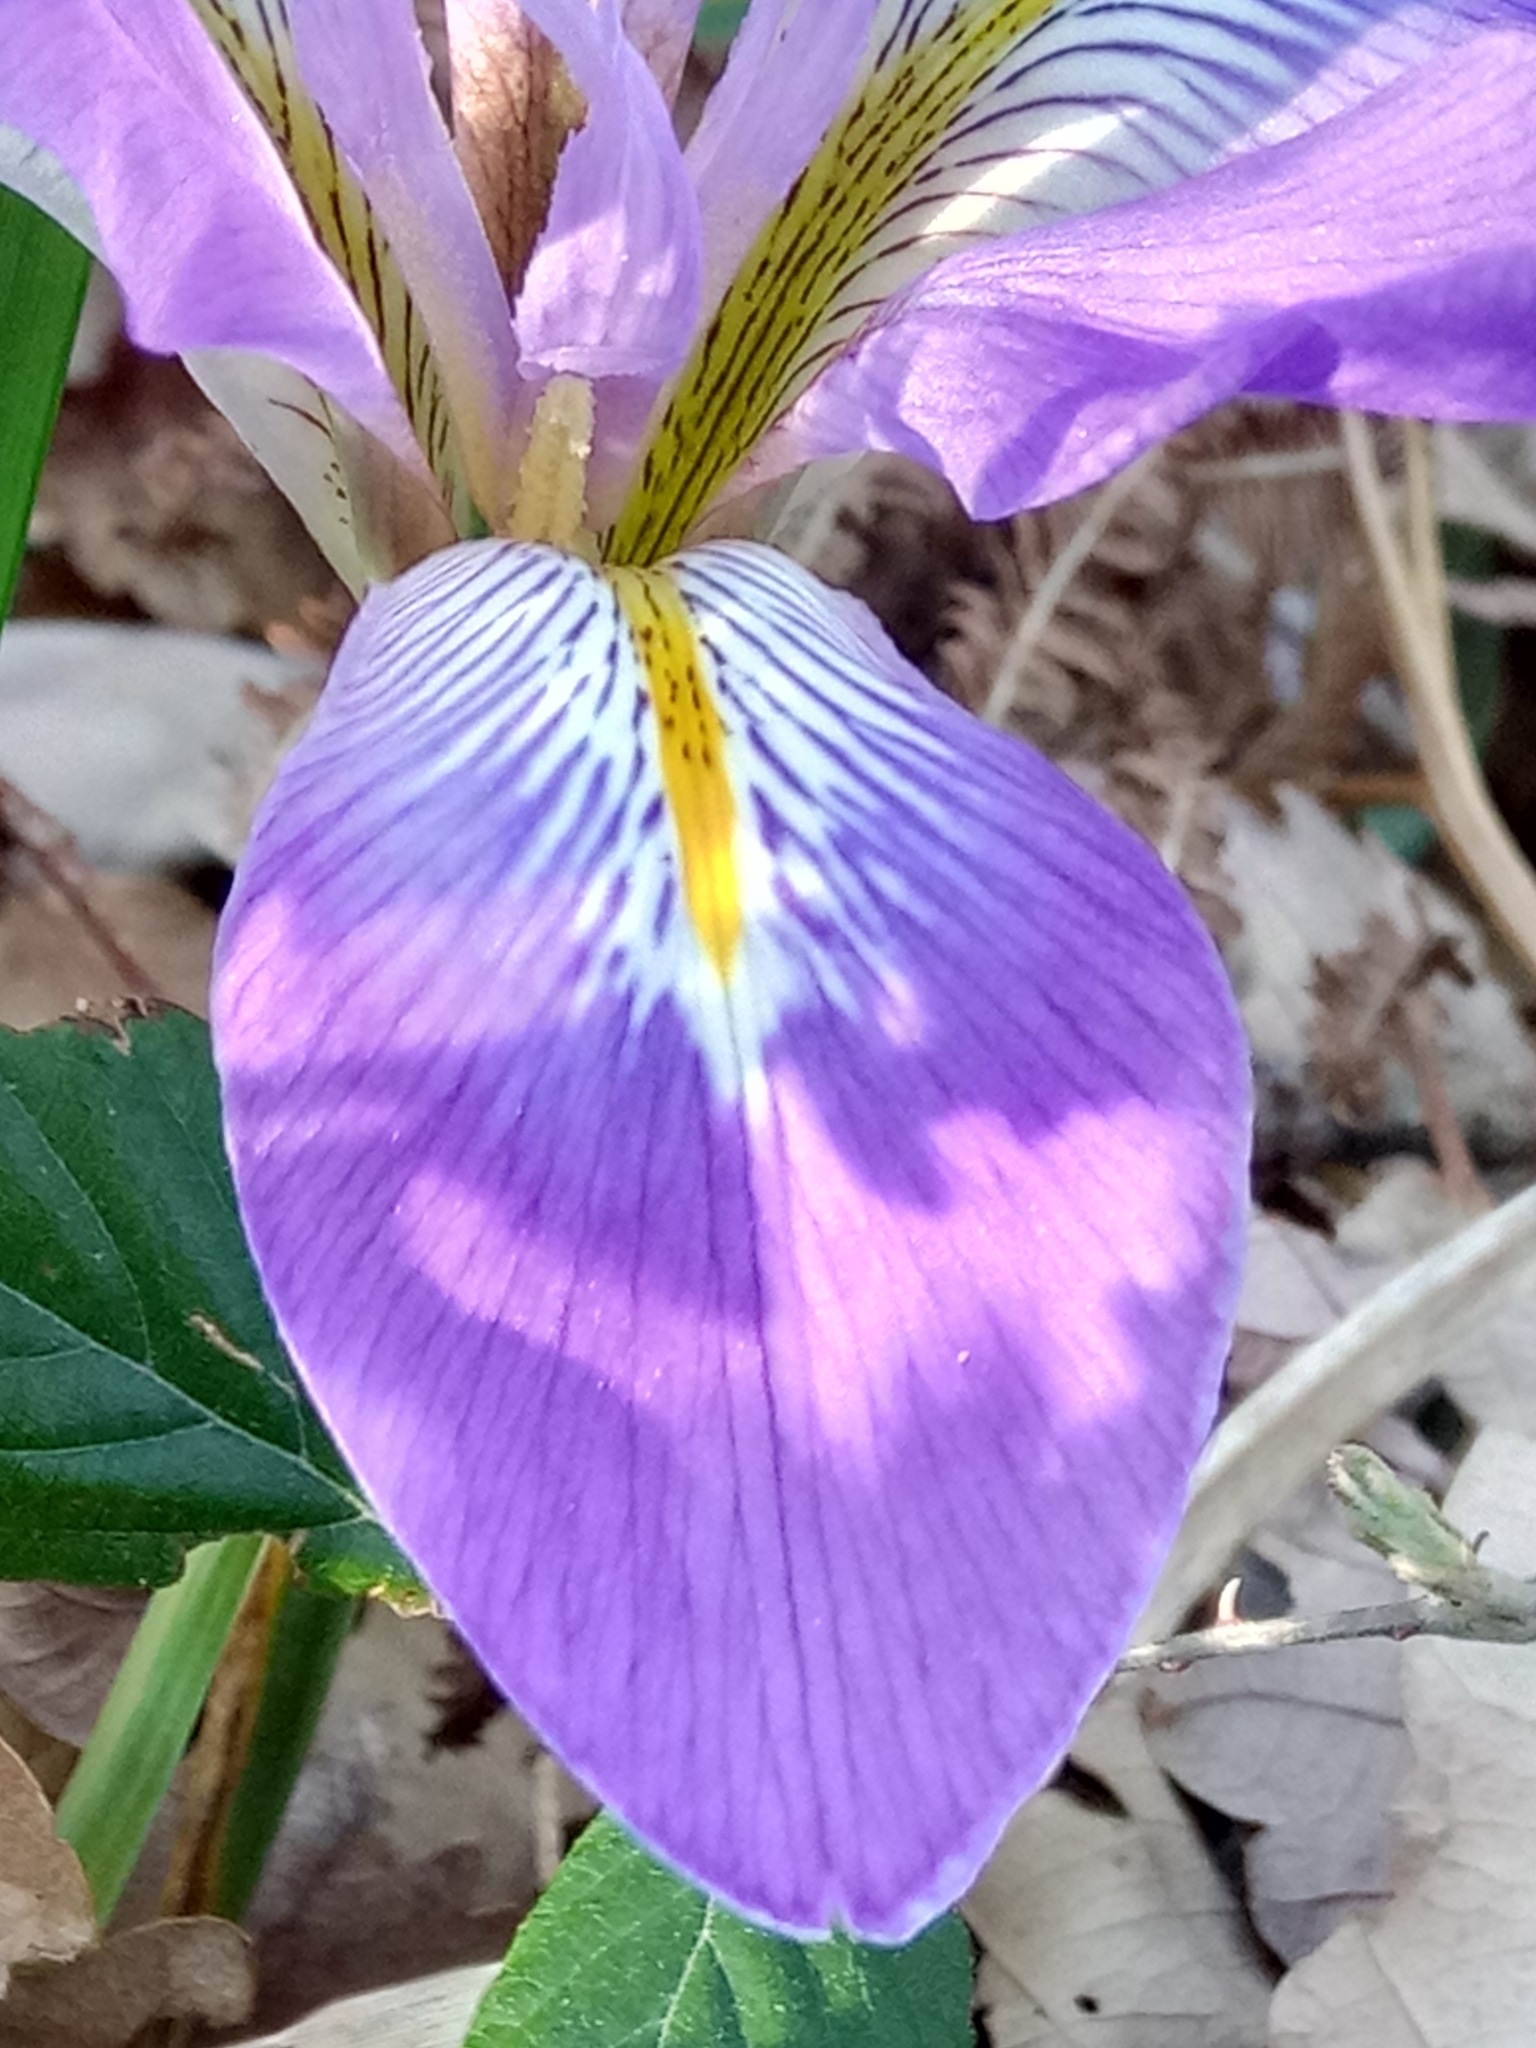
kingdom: Plantae
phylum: Tracheophyta
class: Liliopsida
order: Asparagales
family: Iridaceae
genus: Iris
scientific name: Iris unguicularis
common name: Algerian iris
